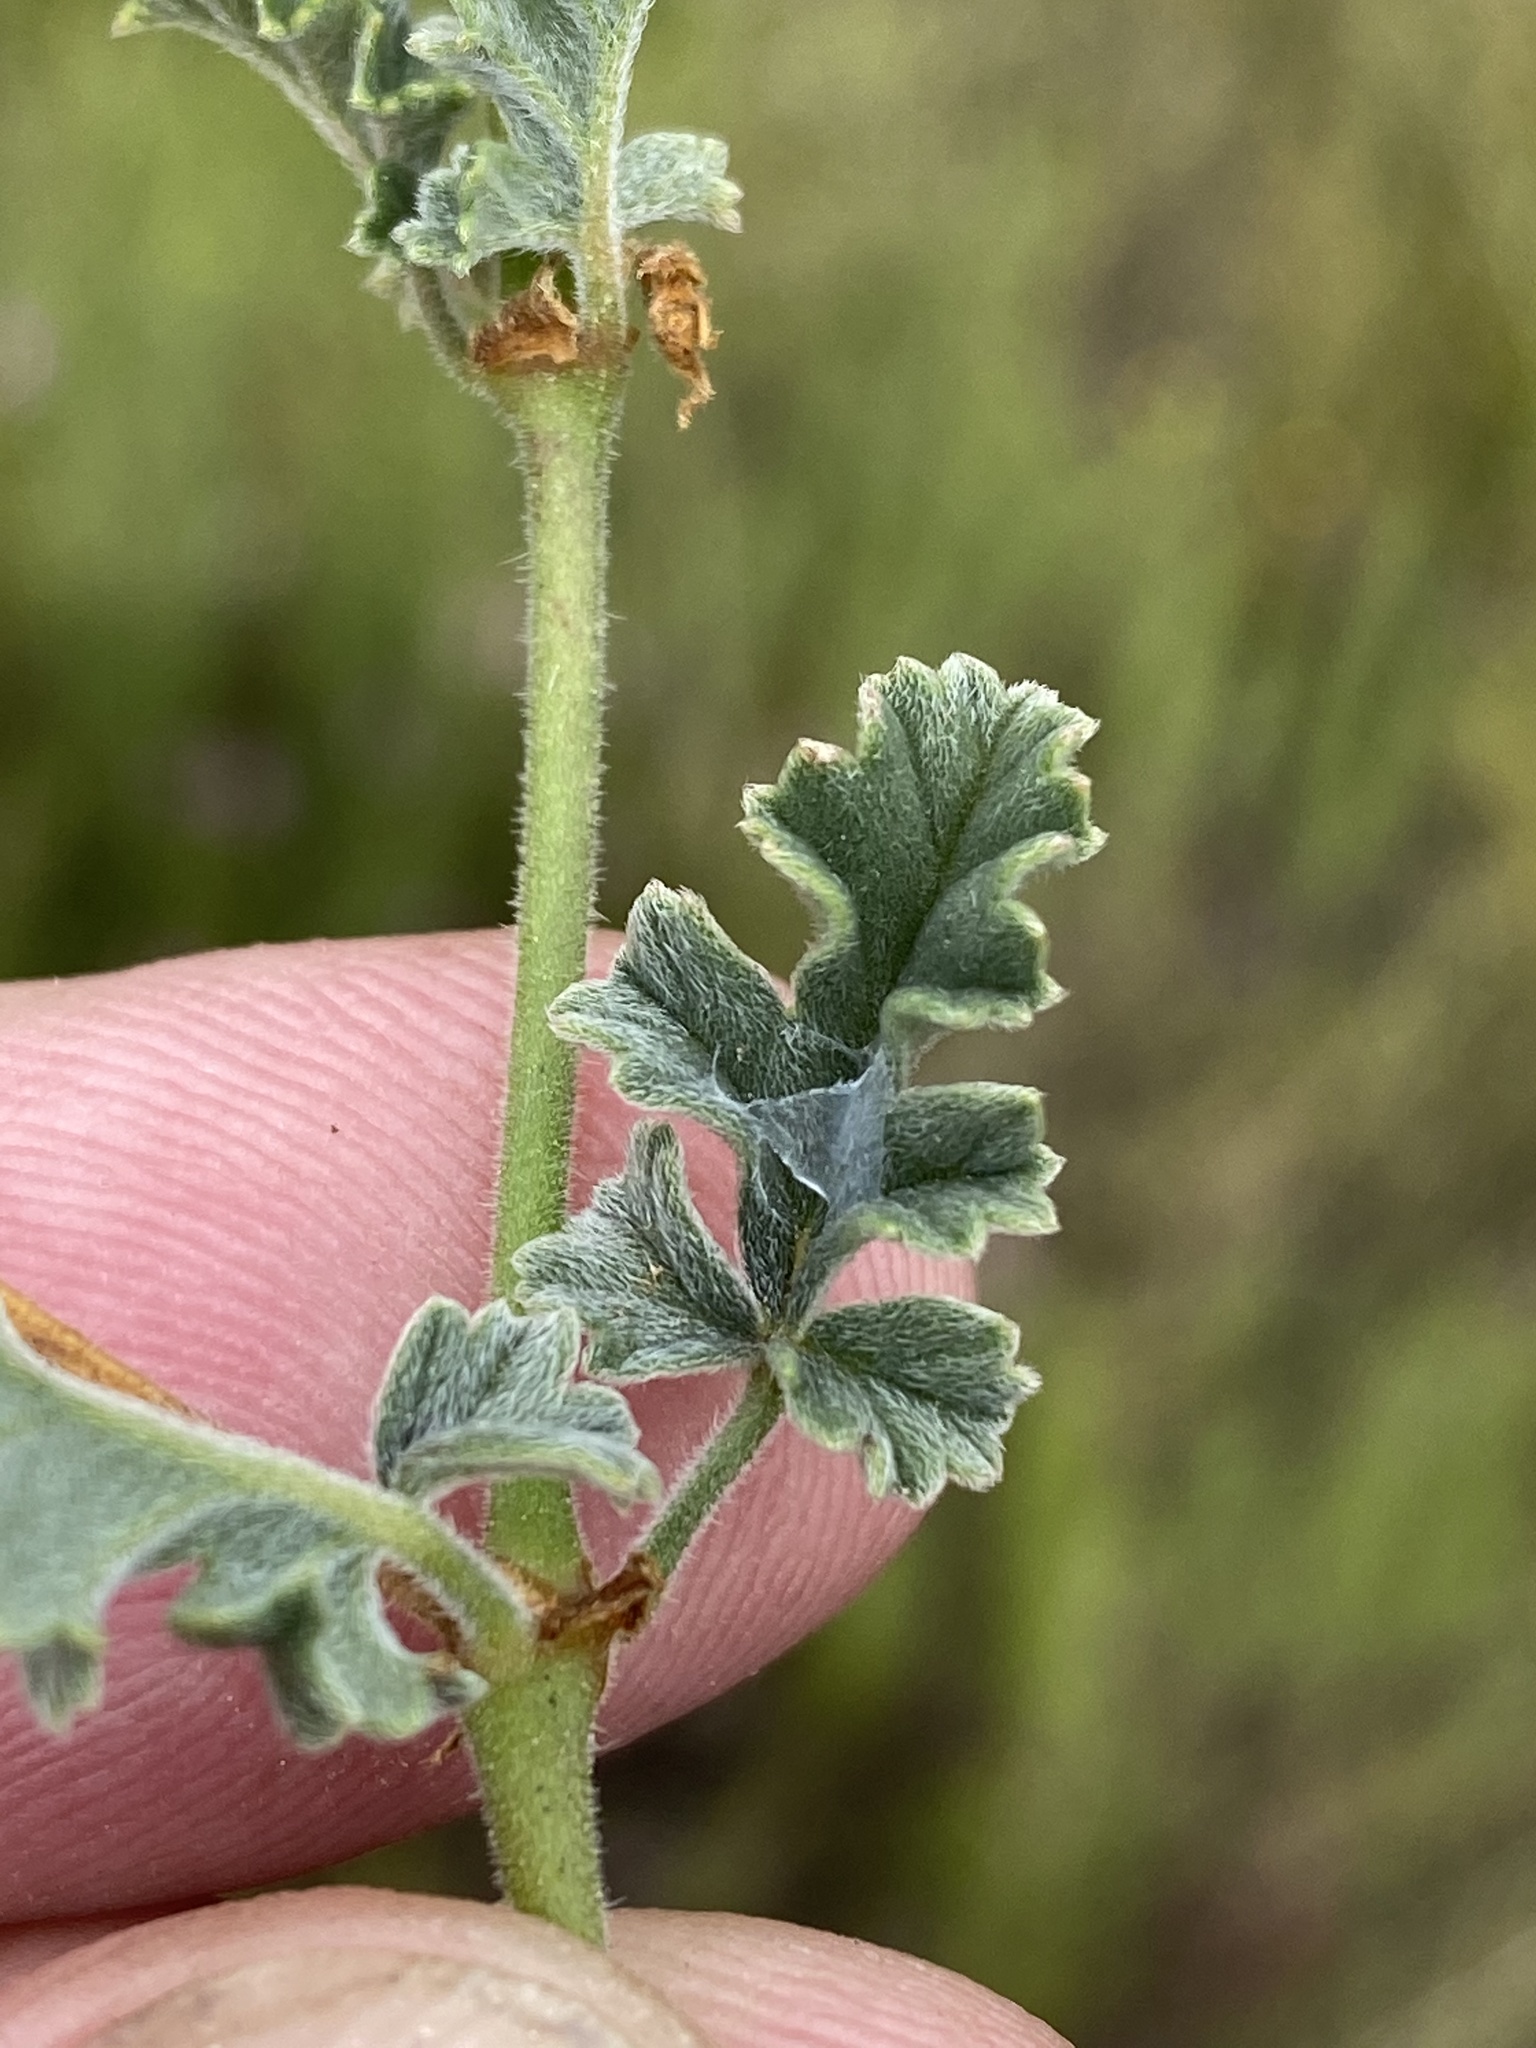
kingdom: Plantae
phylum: Tracheophyta
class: Magnoliopsida
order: Geraniales
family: Geraniaceae
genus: Pelargonium
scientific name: Pelargonium candicans
